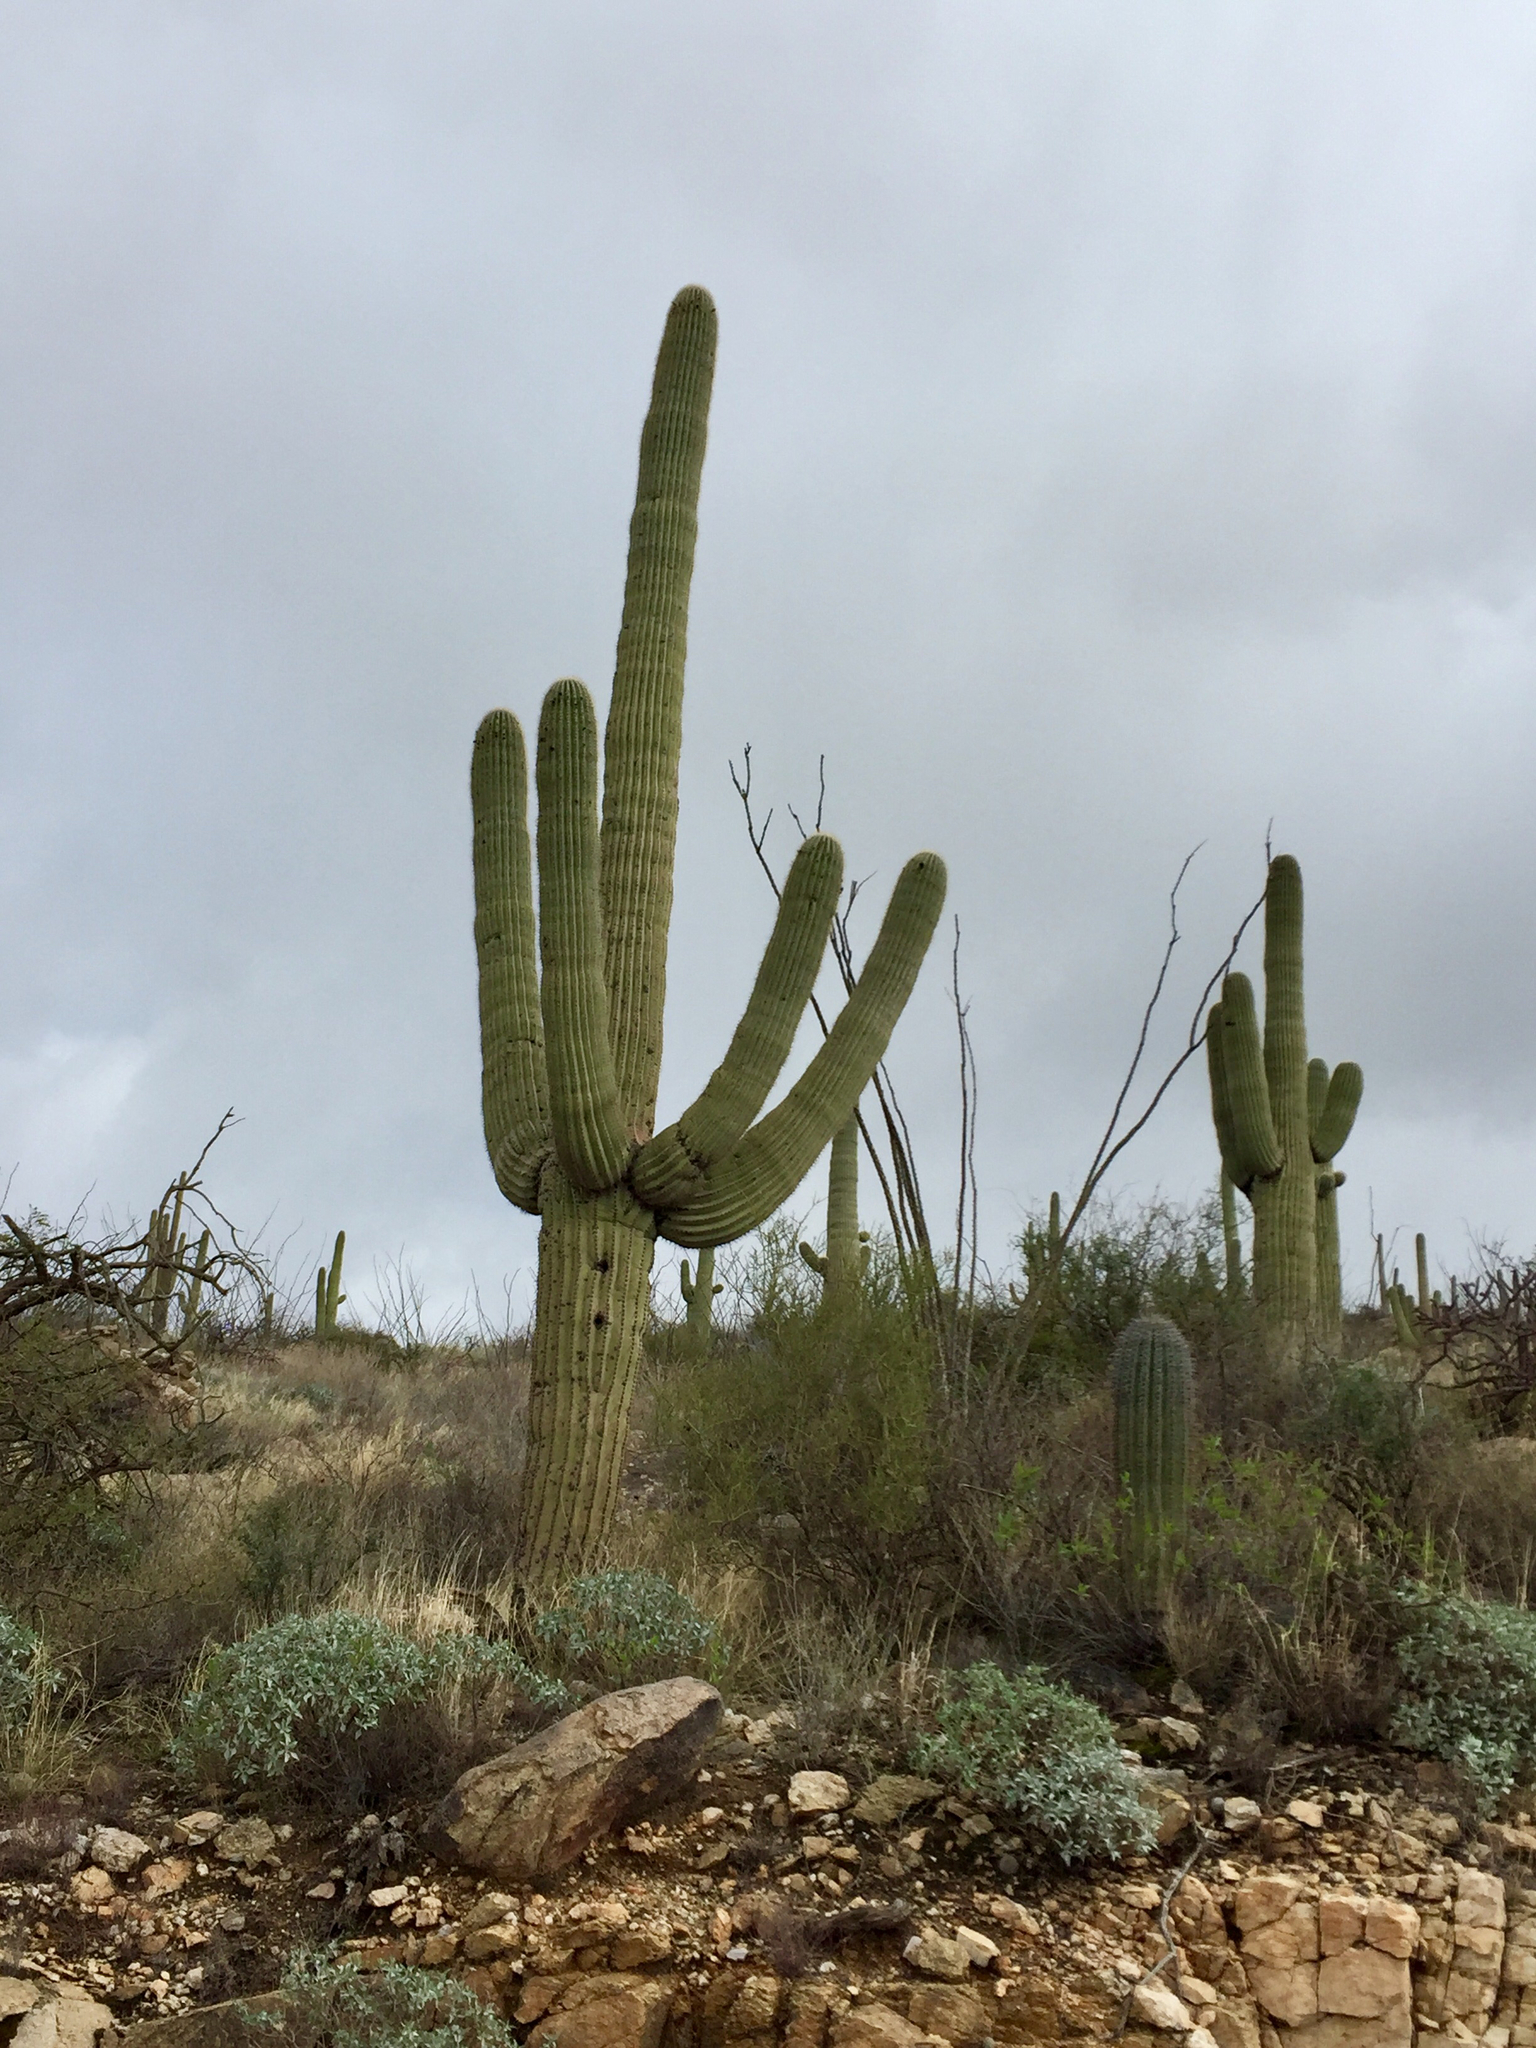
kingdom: Plantae
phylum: Tracheophyta
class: Magnoliopsida
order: Caryophyllales
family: Cactaceae
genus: Carnegiea
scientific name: Carnegiea gigantea
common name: Saguaro
